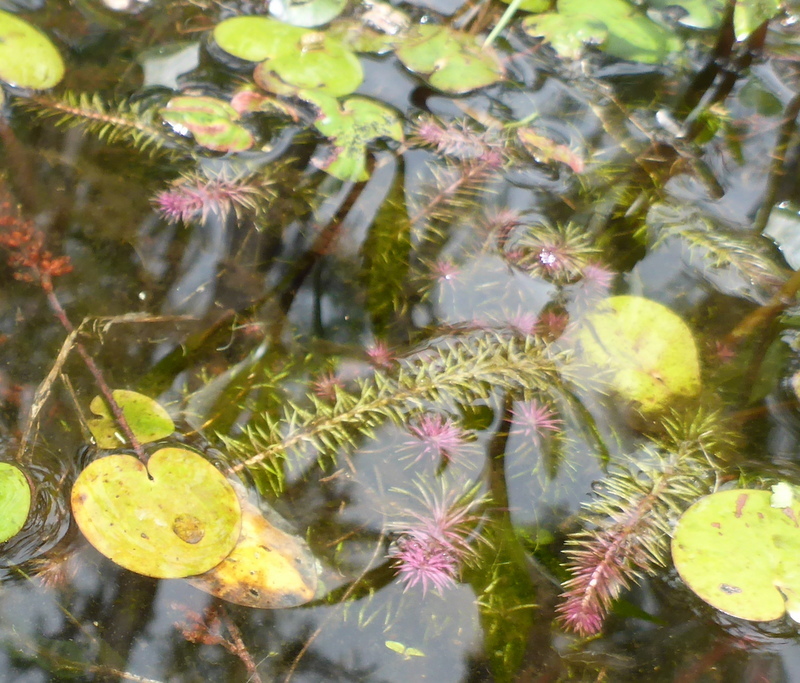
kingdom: Plantae
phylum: Tracheophyta
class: Liliopsida
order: Poales
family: Mayacaceae
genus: Mayaca
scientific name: Mayaca fluviatilis
